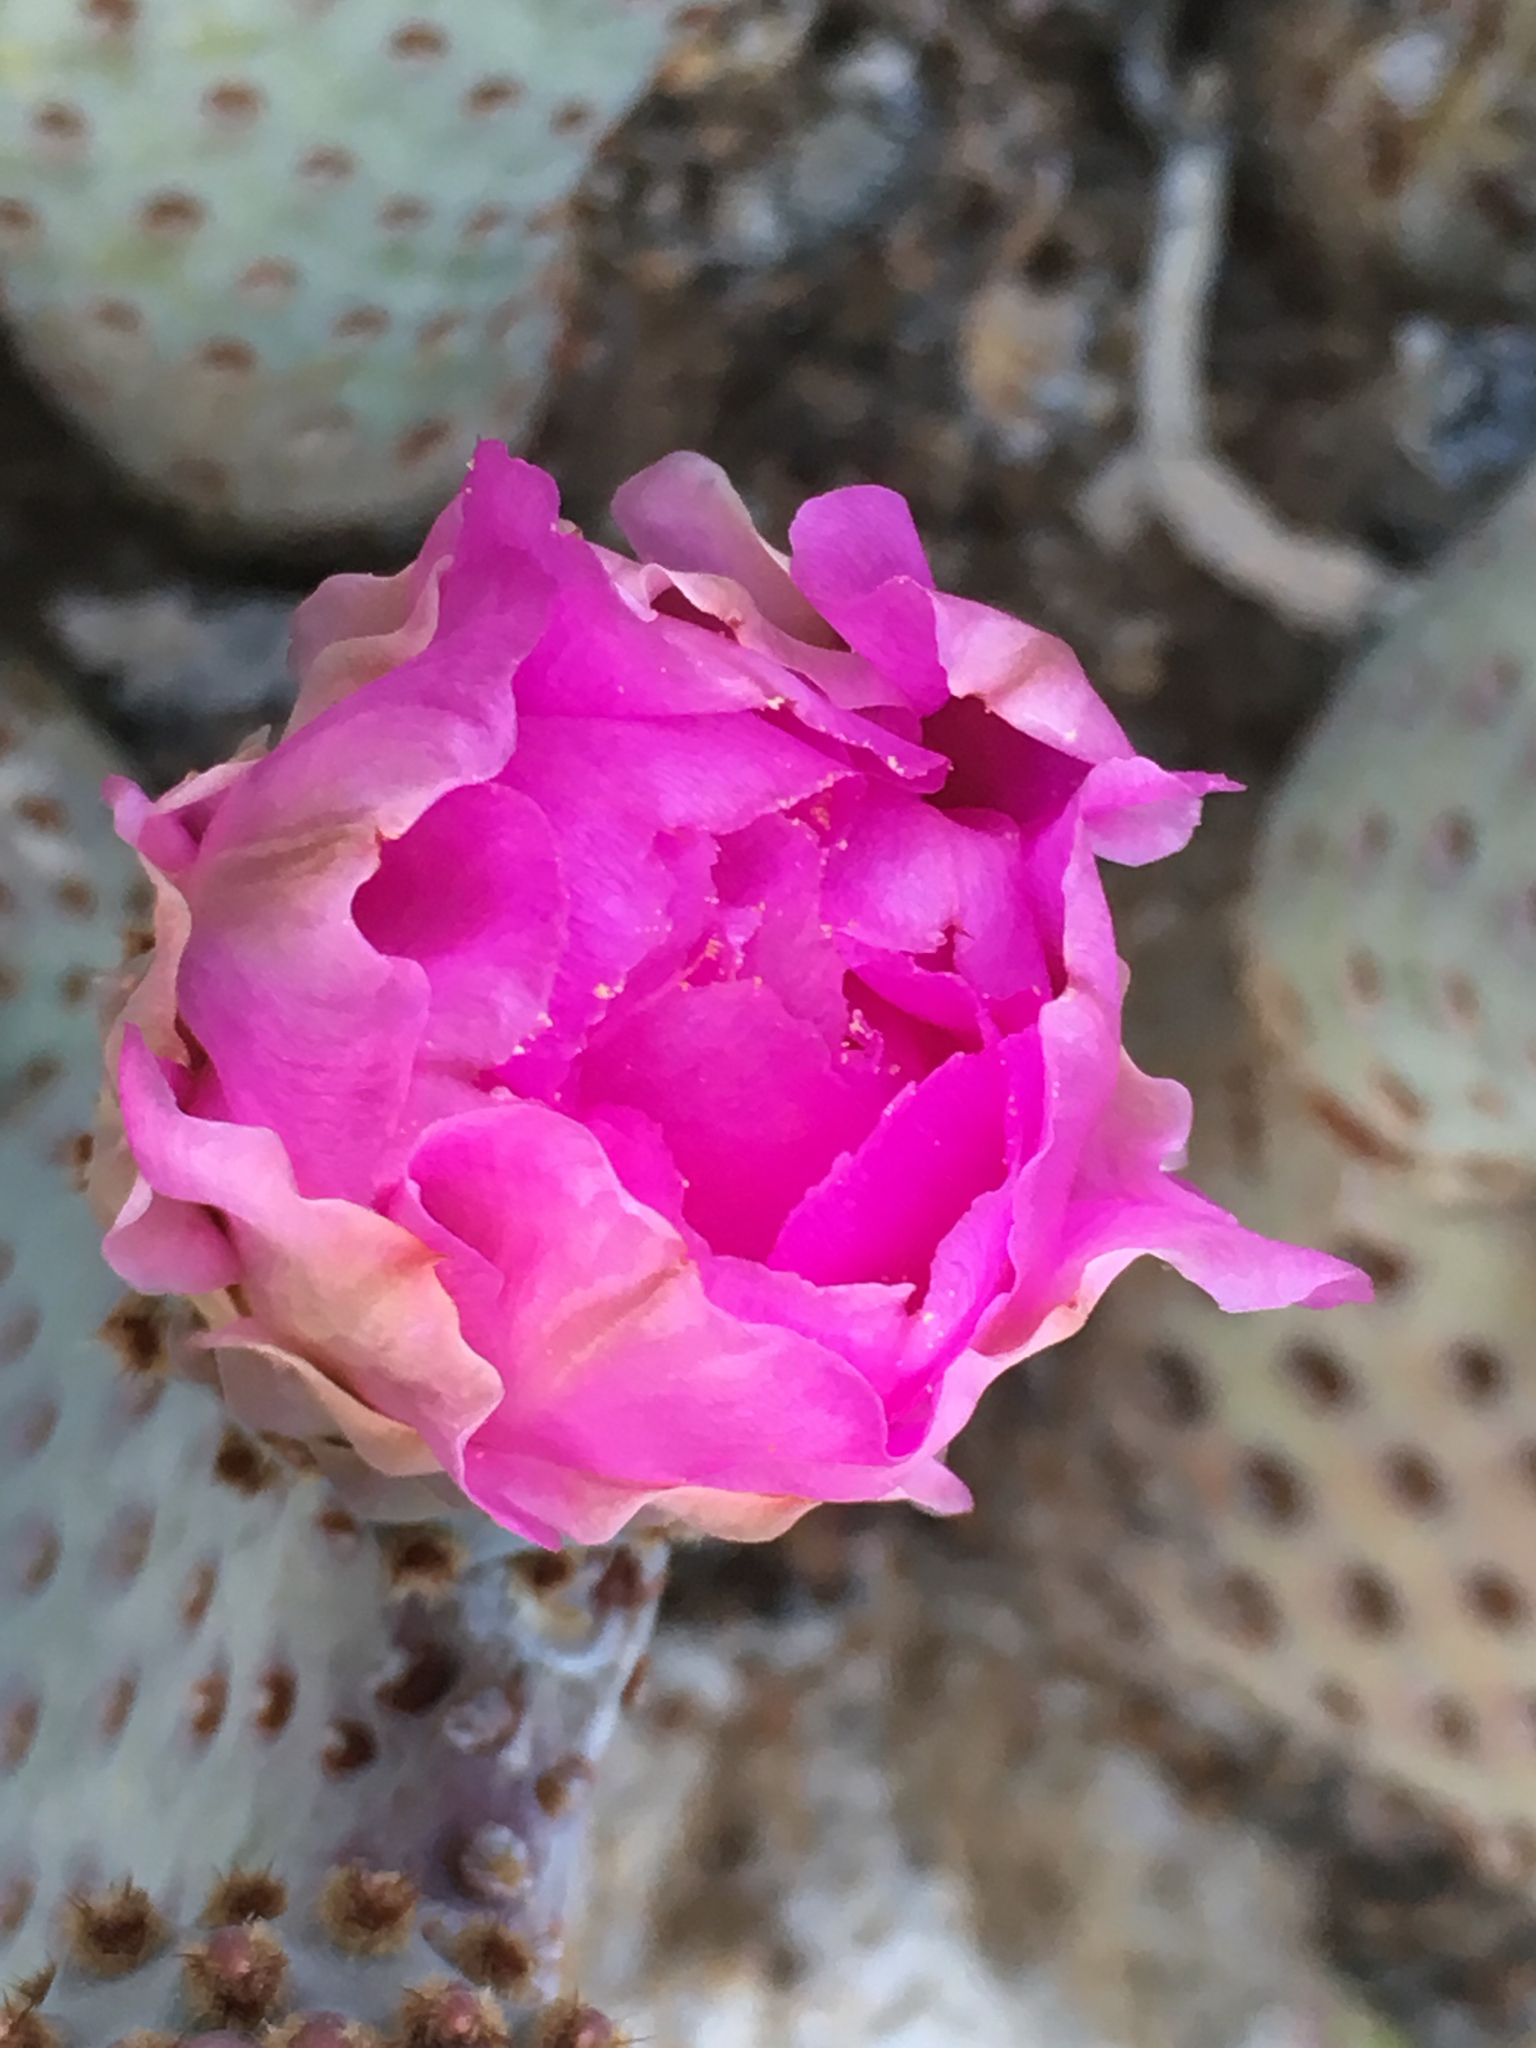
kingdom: Plantae
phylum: Tracheophyta
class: Magnoliopsida
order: Caryophyllales
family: Cactaceae
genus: Opuntia
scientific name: Opuntia basilaris
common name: Beavertail prickly-pear
